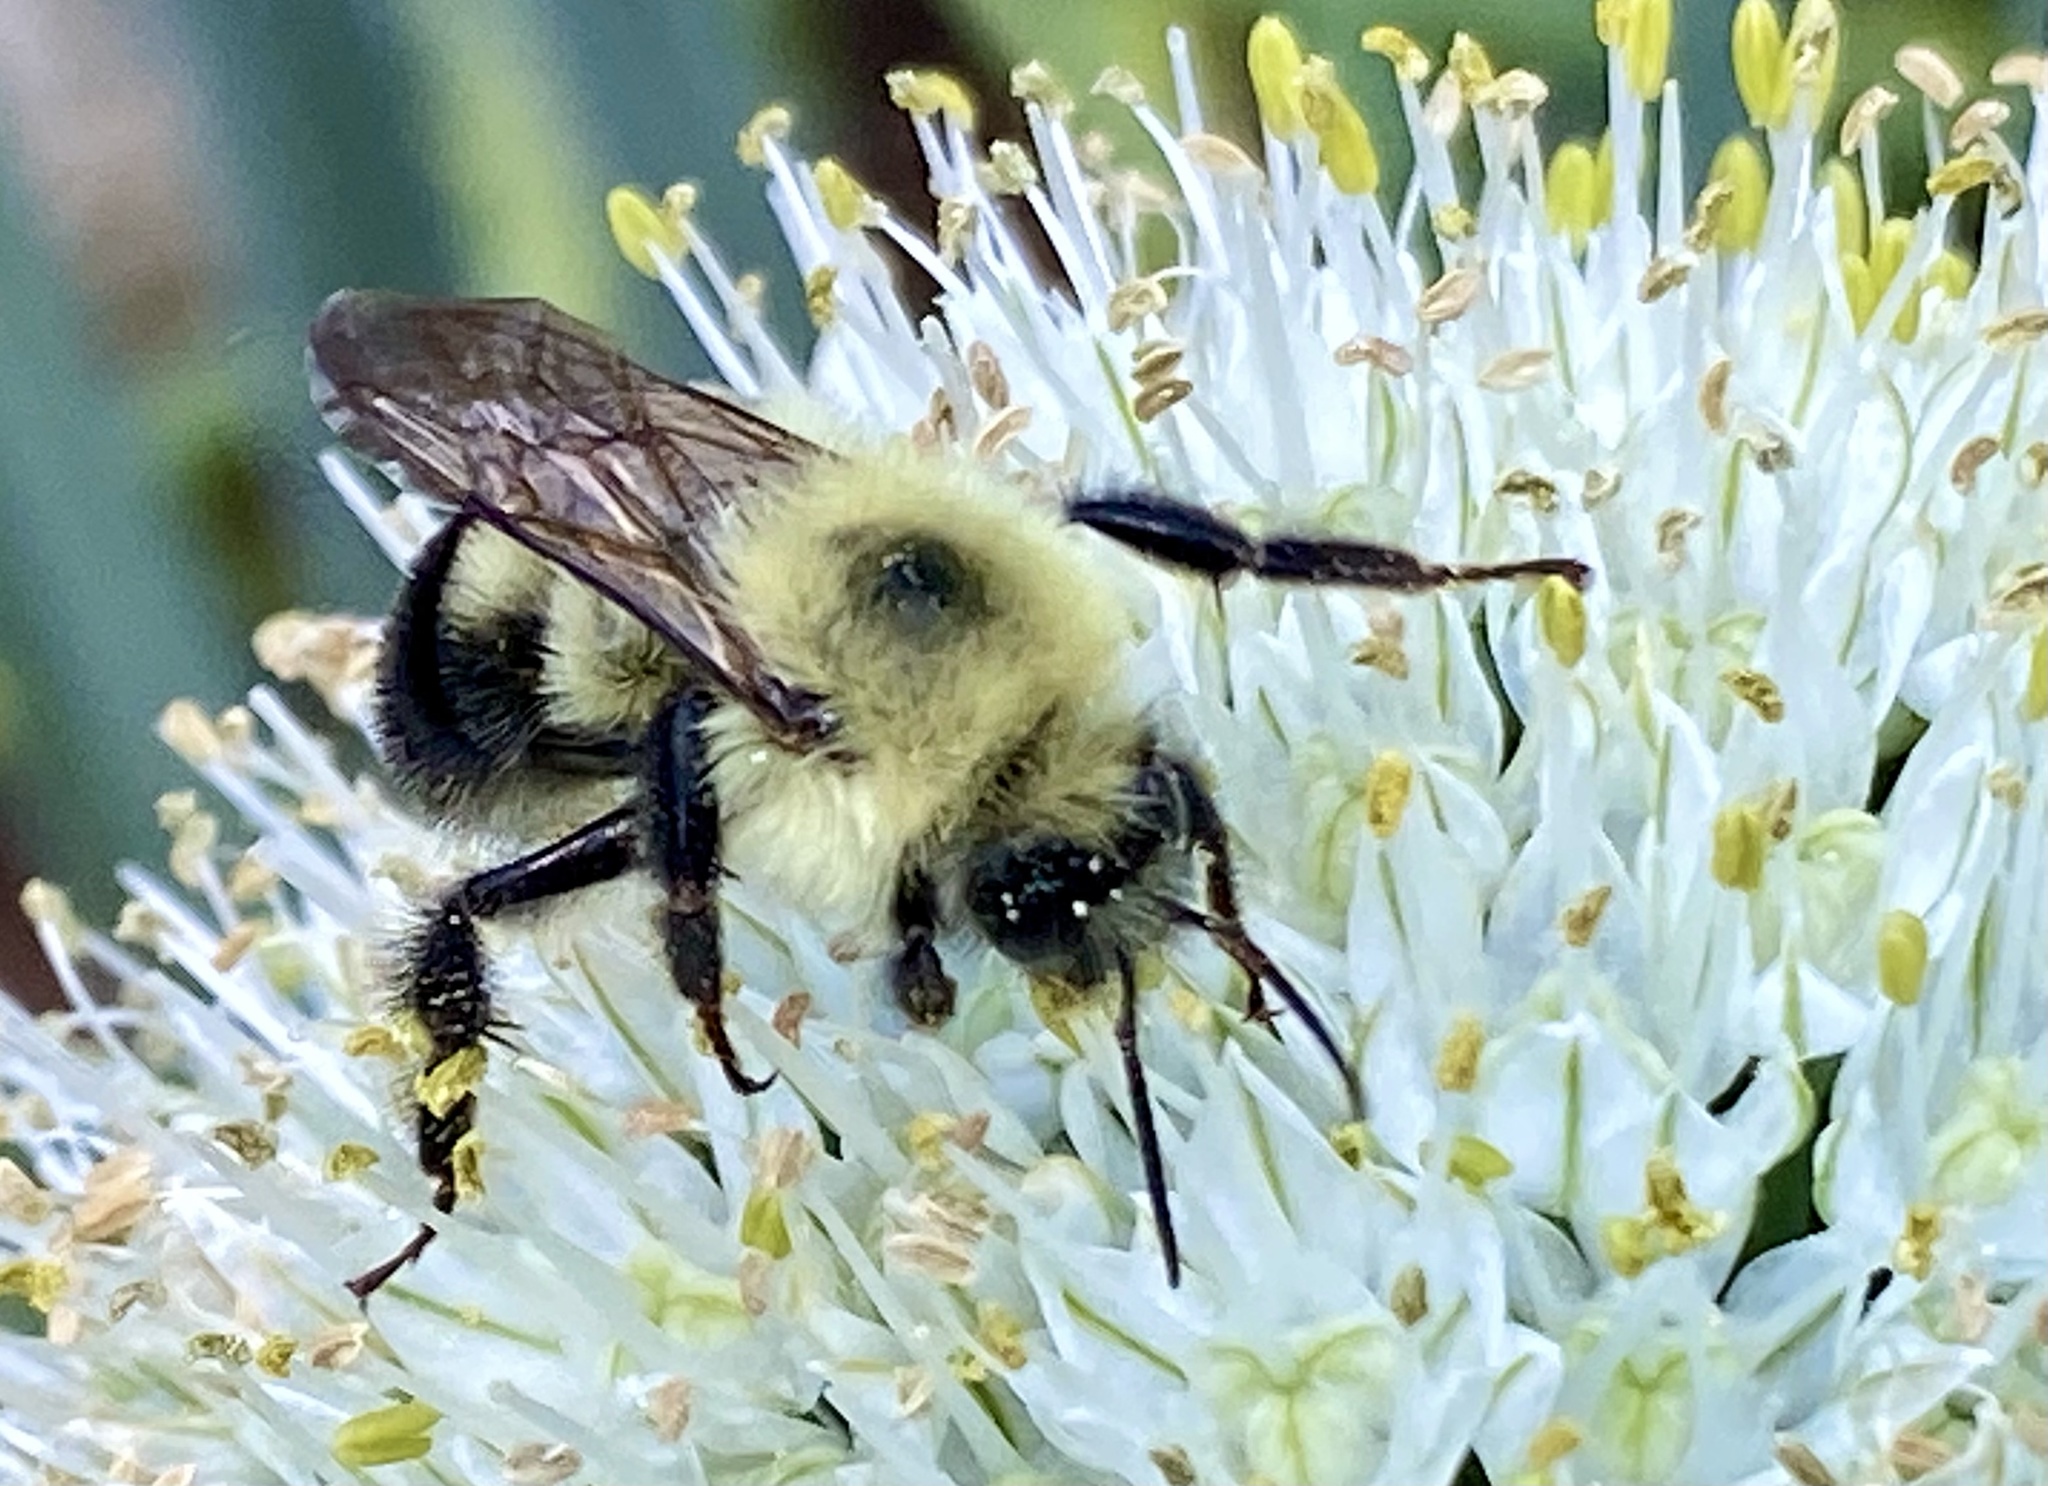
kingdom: Animalia
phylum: Arthropoda
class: Insecta
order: Hymenoptera
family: Apidae
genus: Bombus
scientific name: Bombus bimaculatus
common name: Two-spotted bumble bee
